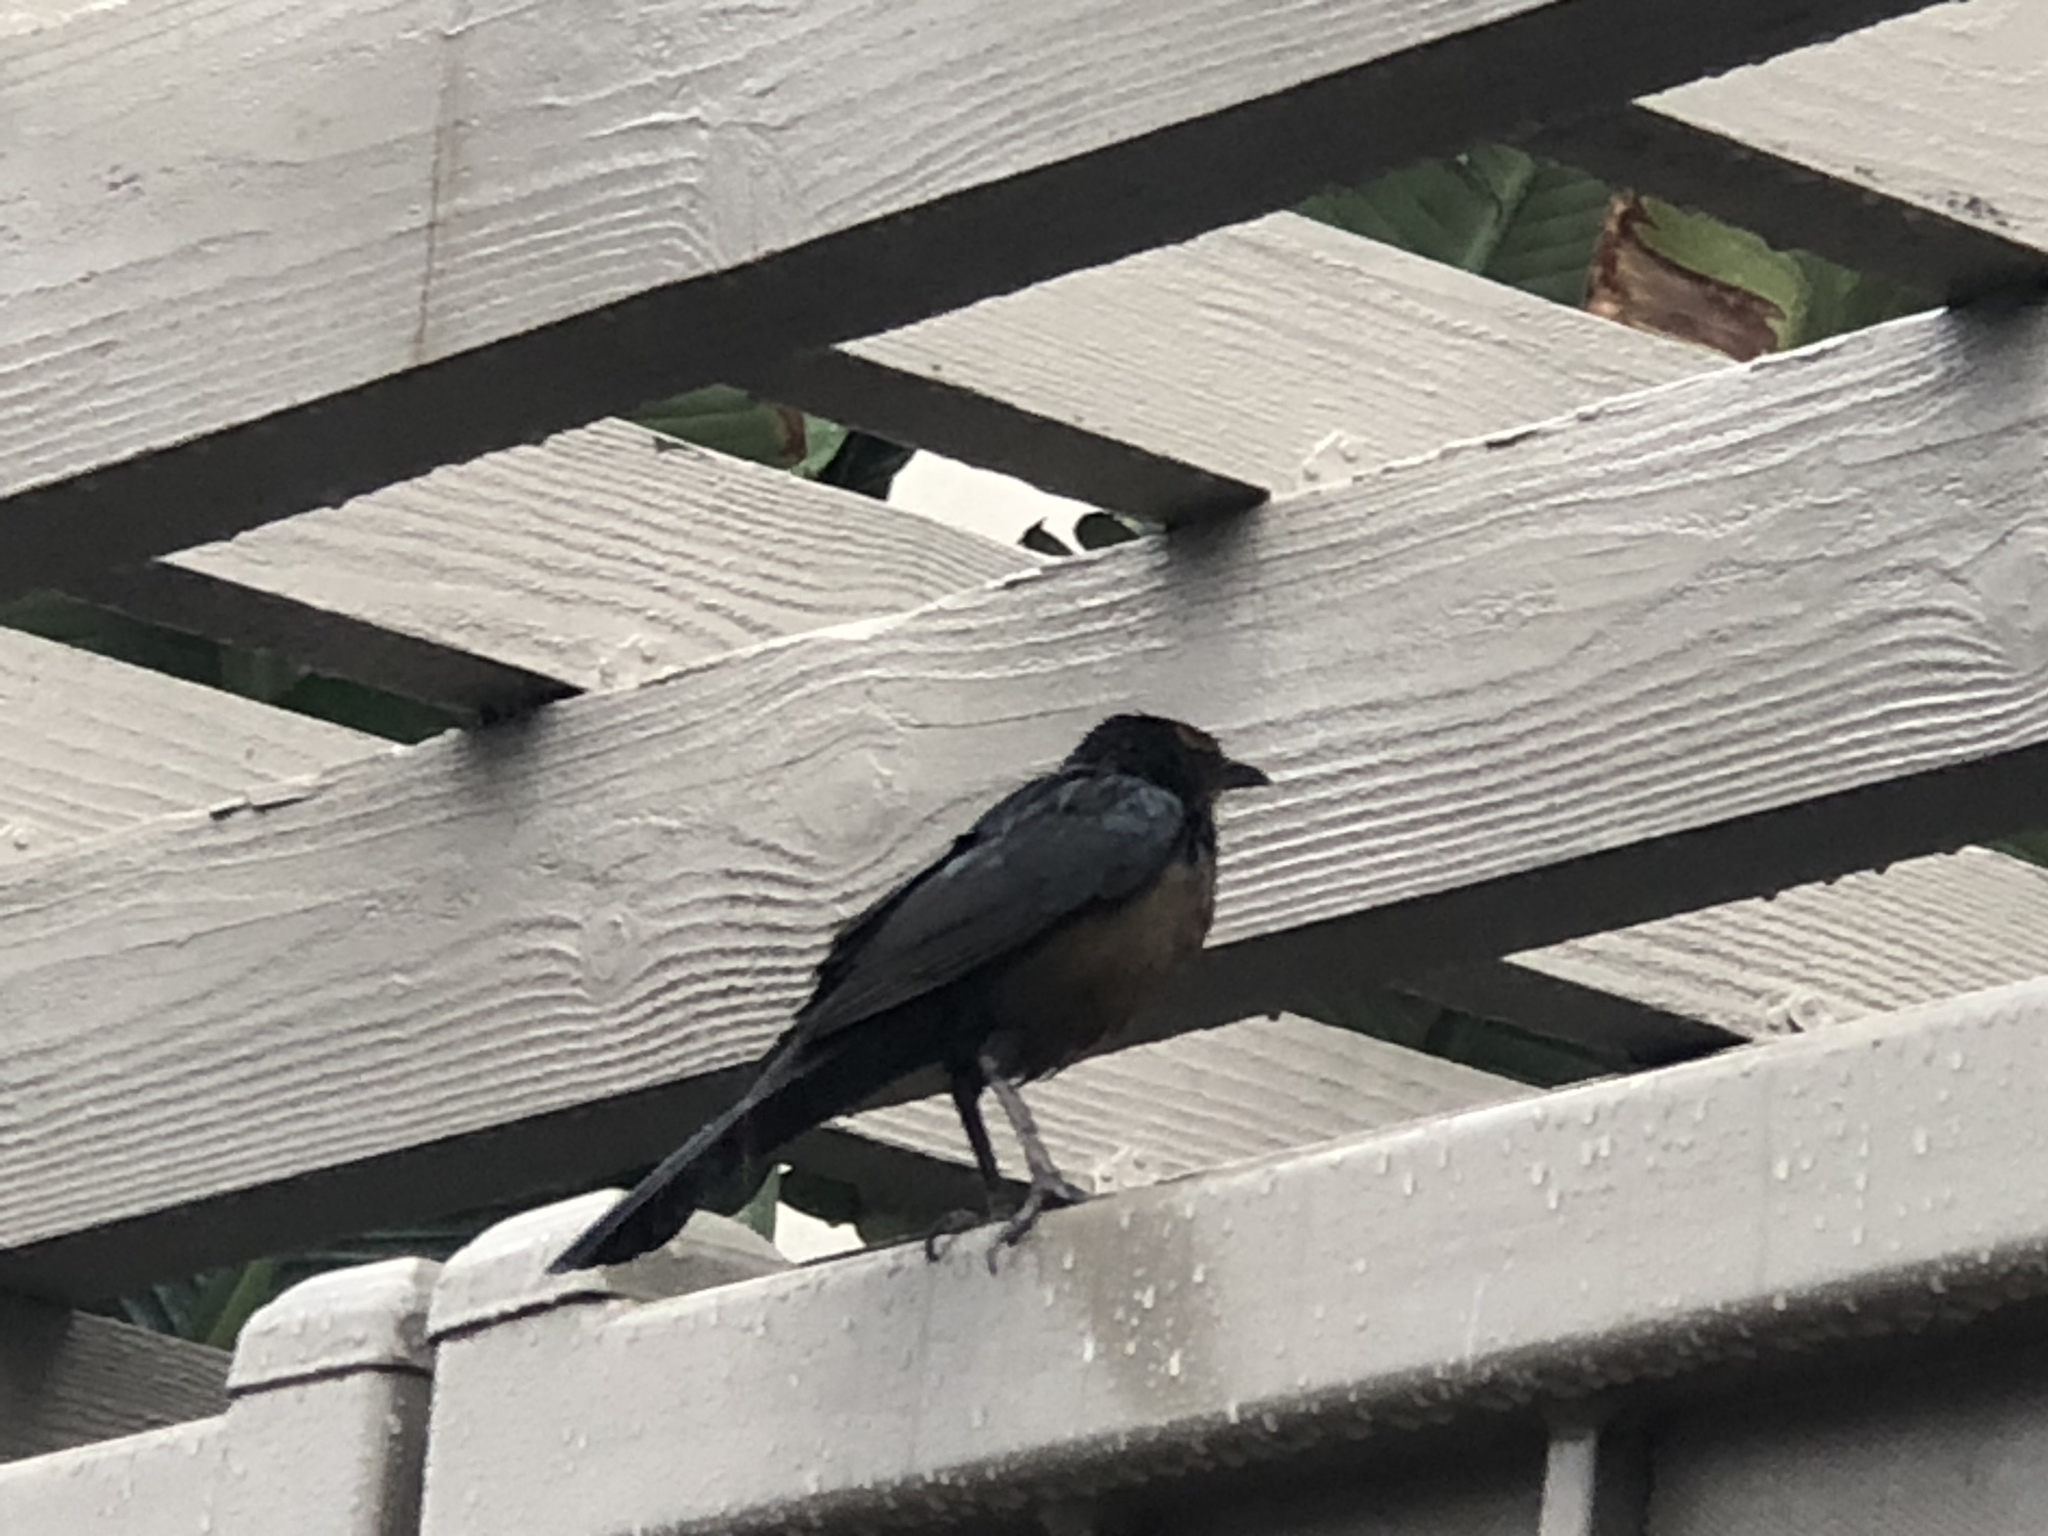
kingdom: Animalia
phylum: Chordata
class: Aves
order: Passeriformes
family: Icteridae
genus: Quiscalus
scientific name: Quiscalus mexicanus
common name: Great-tailed grackle
